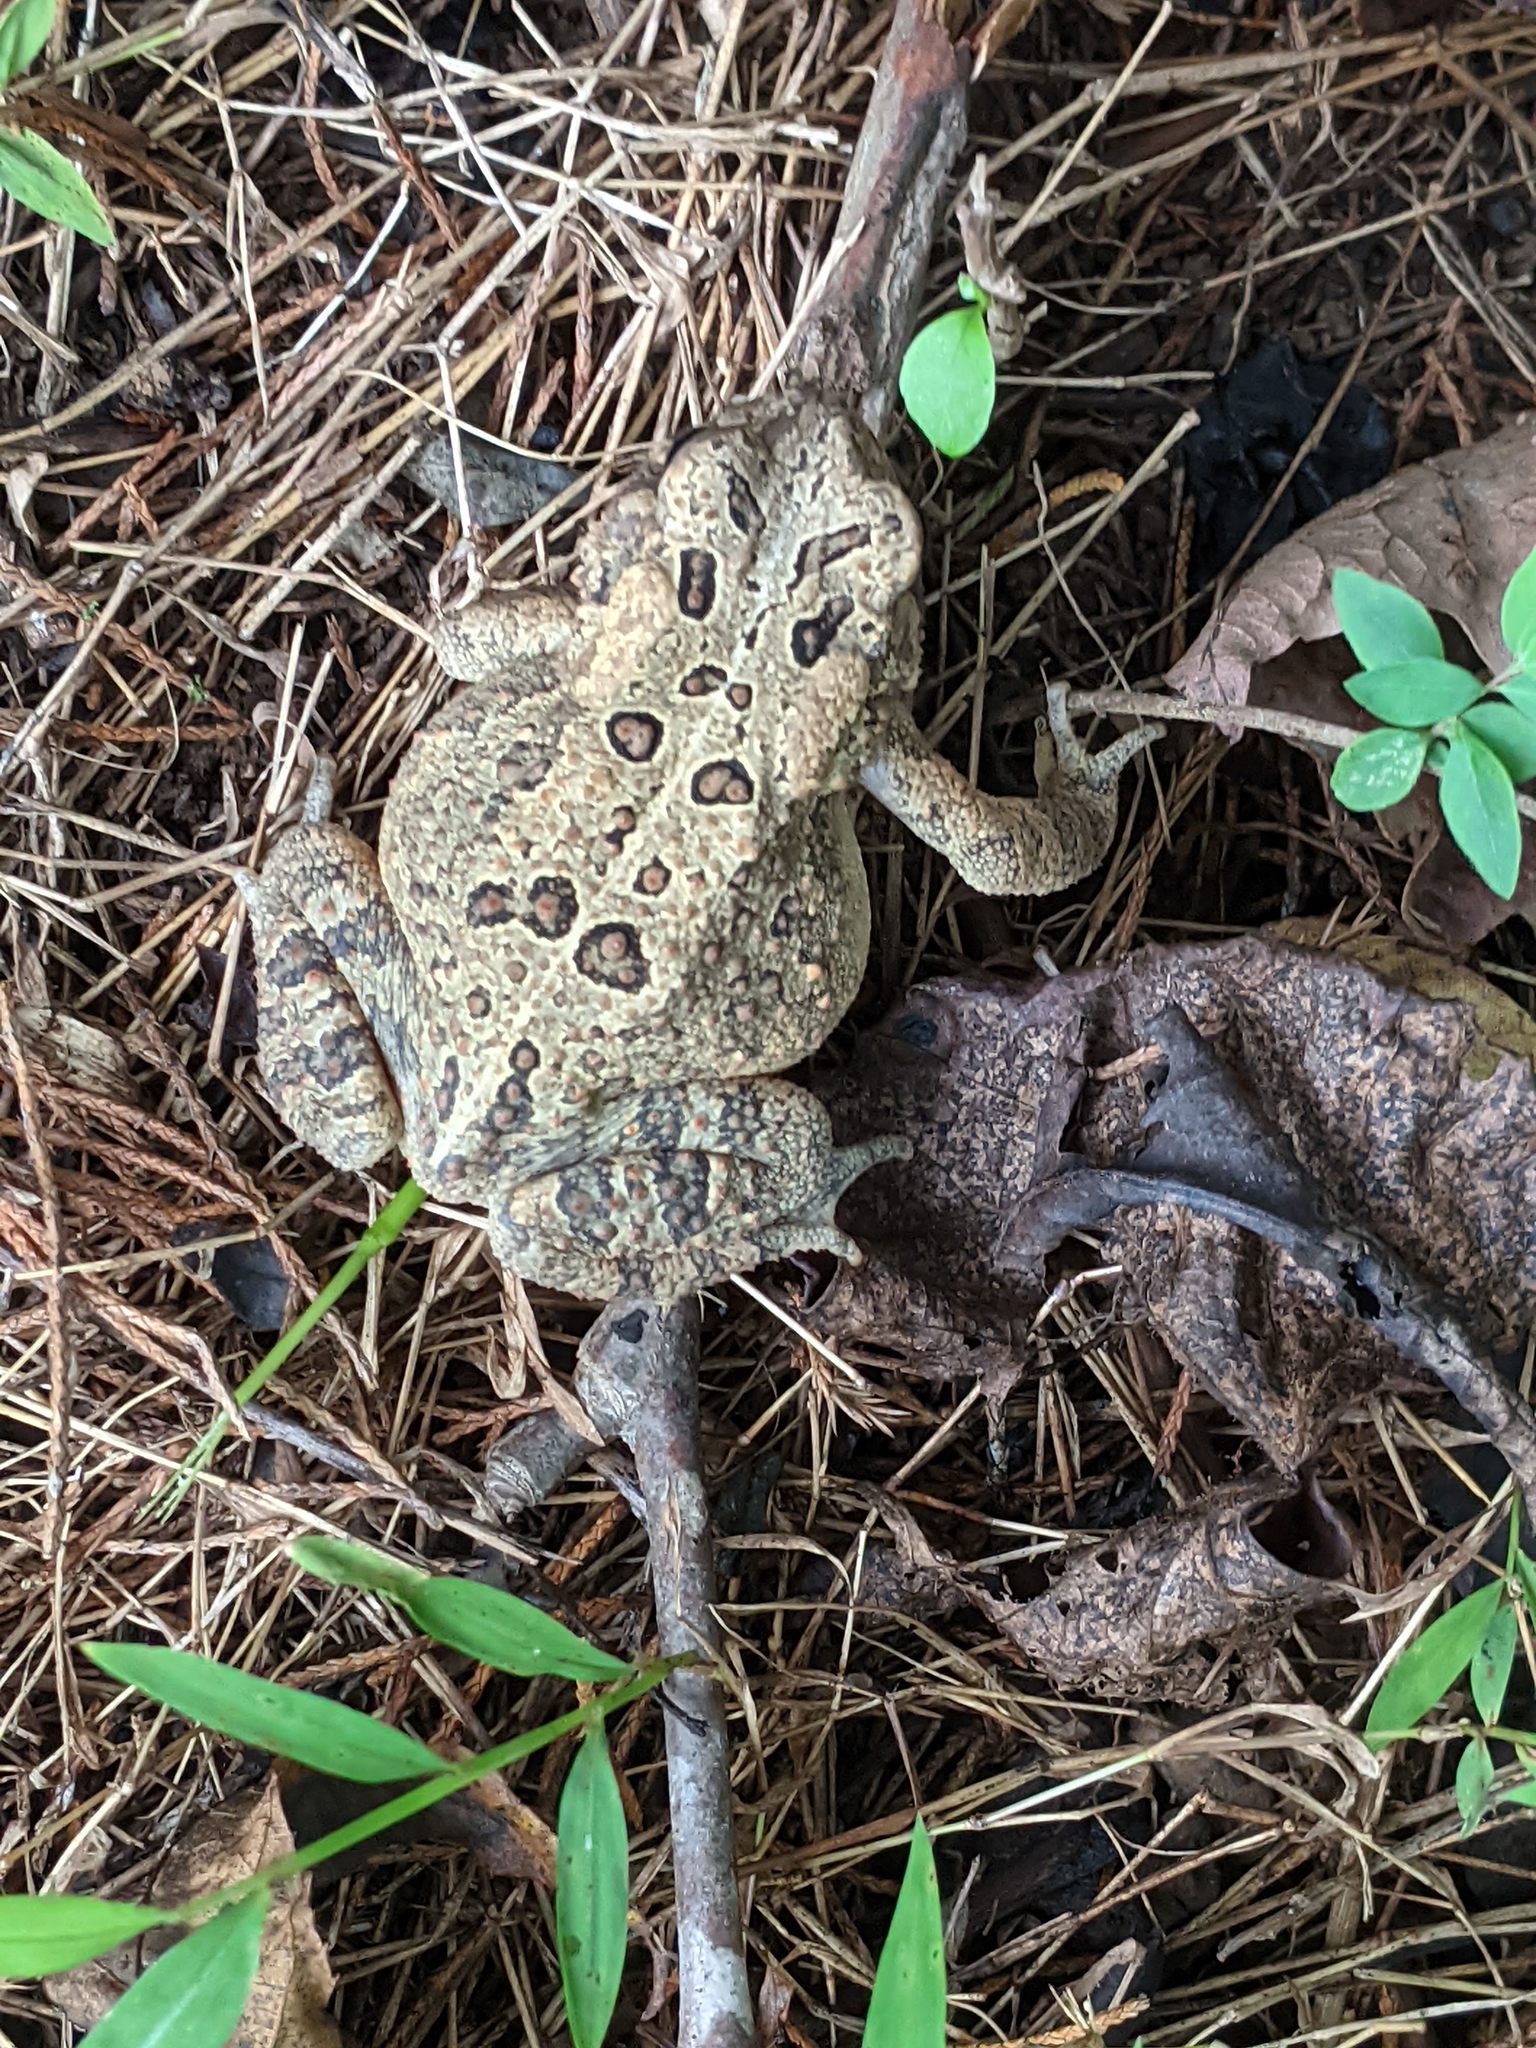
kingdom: Animalia
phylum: Chordata
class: Amphibia
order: Anura
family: Bufonidae
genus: Anaxyrus
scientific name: Anaxyrus americanus
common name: American toad
